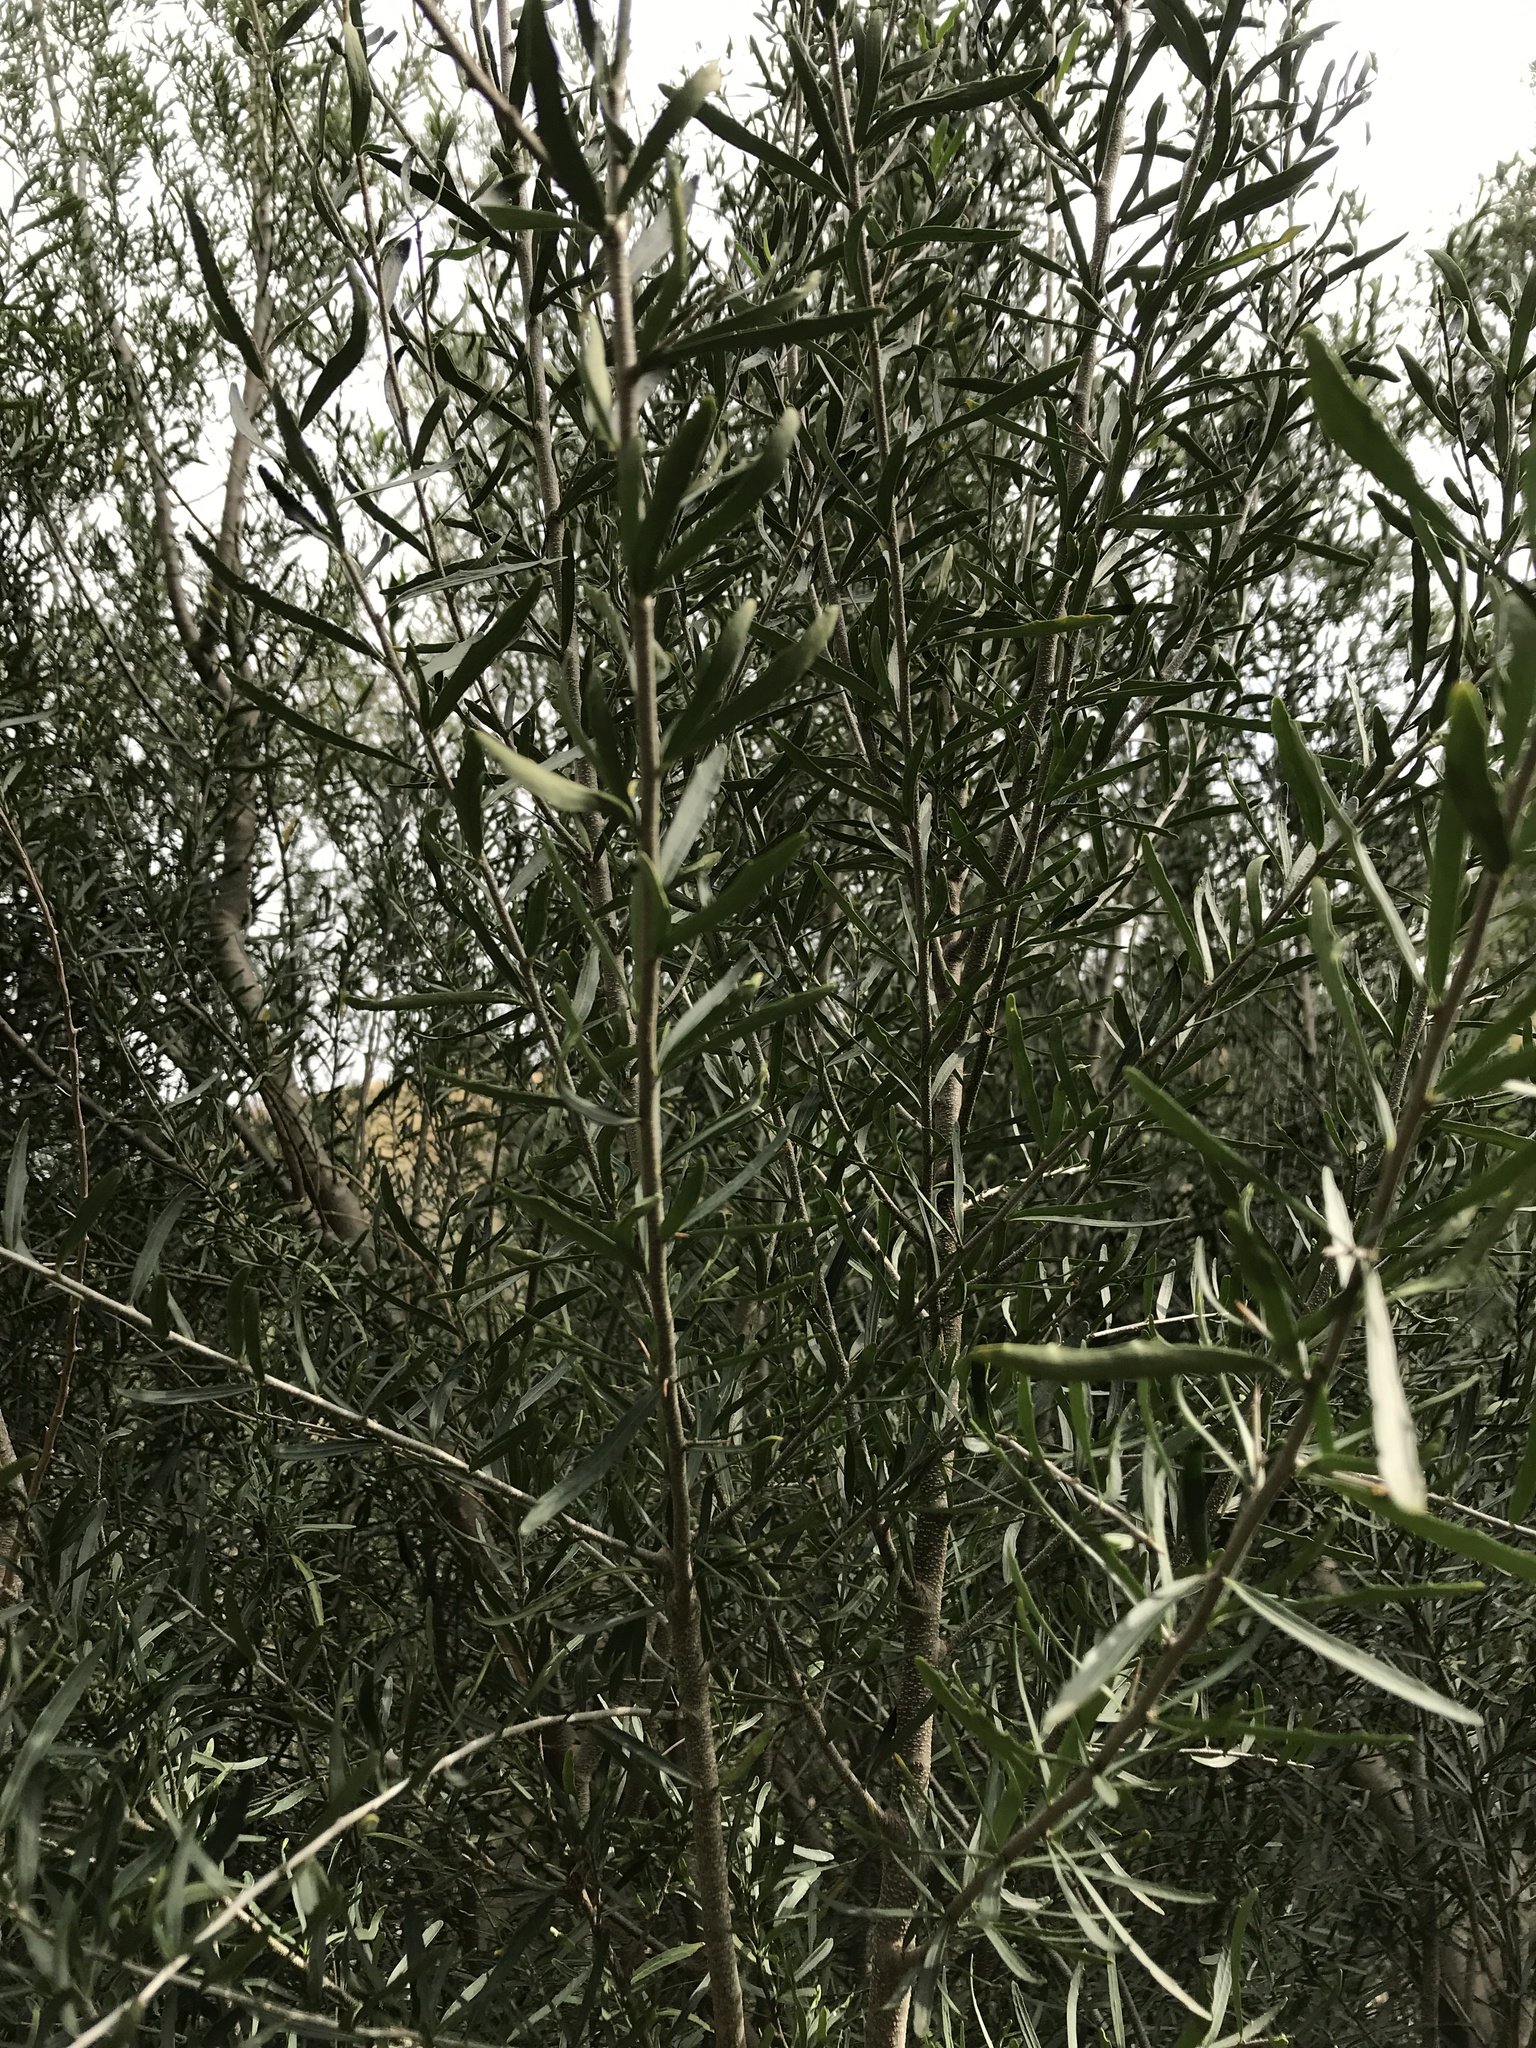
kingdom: Plantae
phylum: Tracheophyta
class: Magnoliopsida
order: Malpighiales
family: Violaceae
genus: Melicytus
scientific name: Melicytus dentatus
